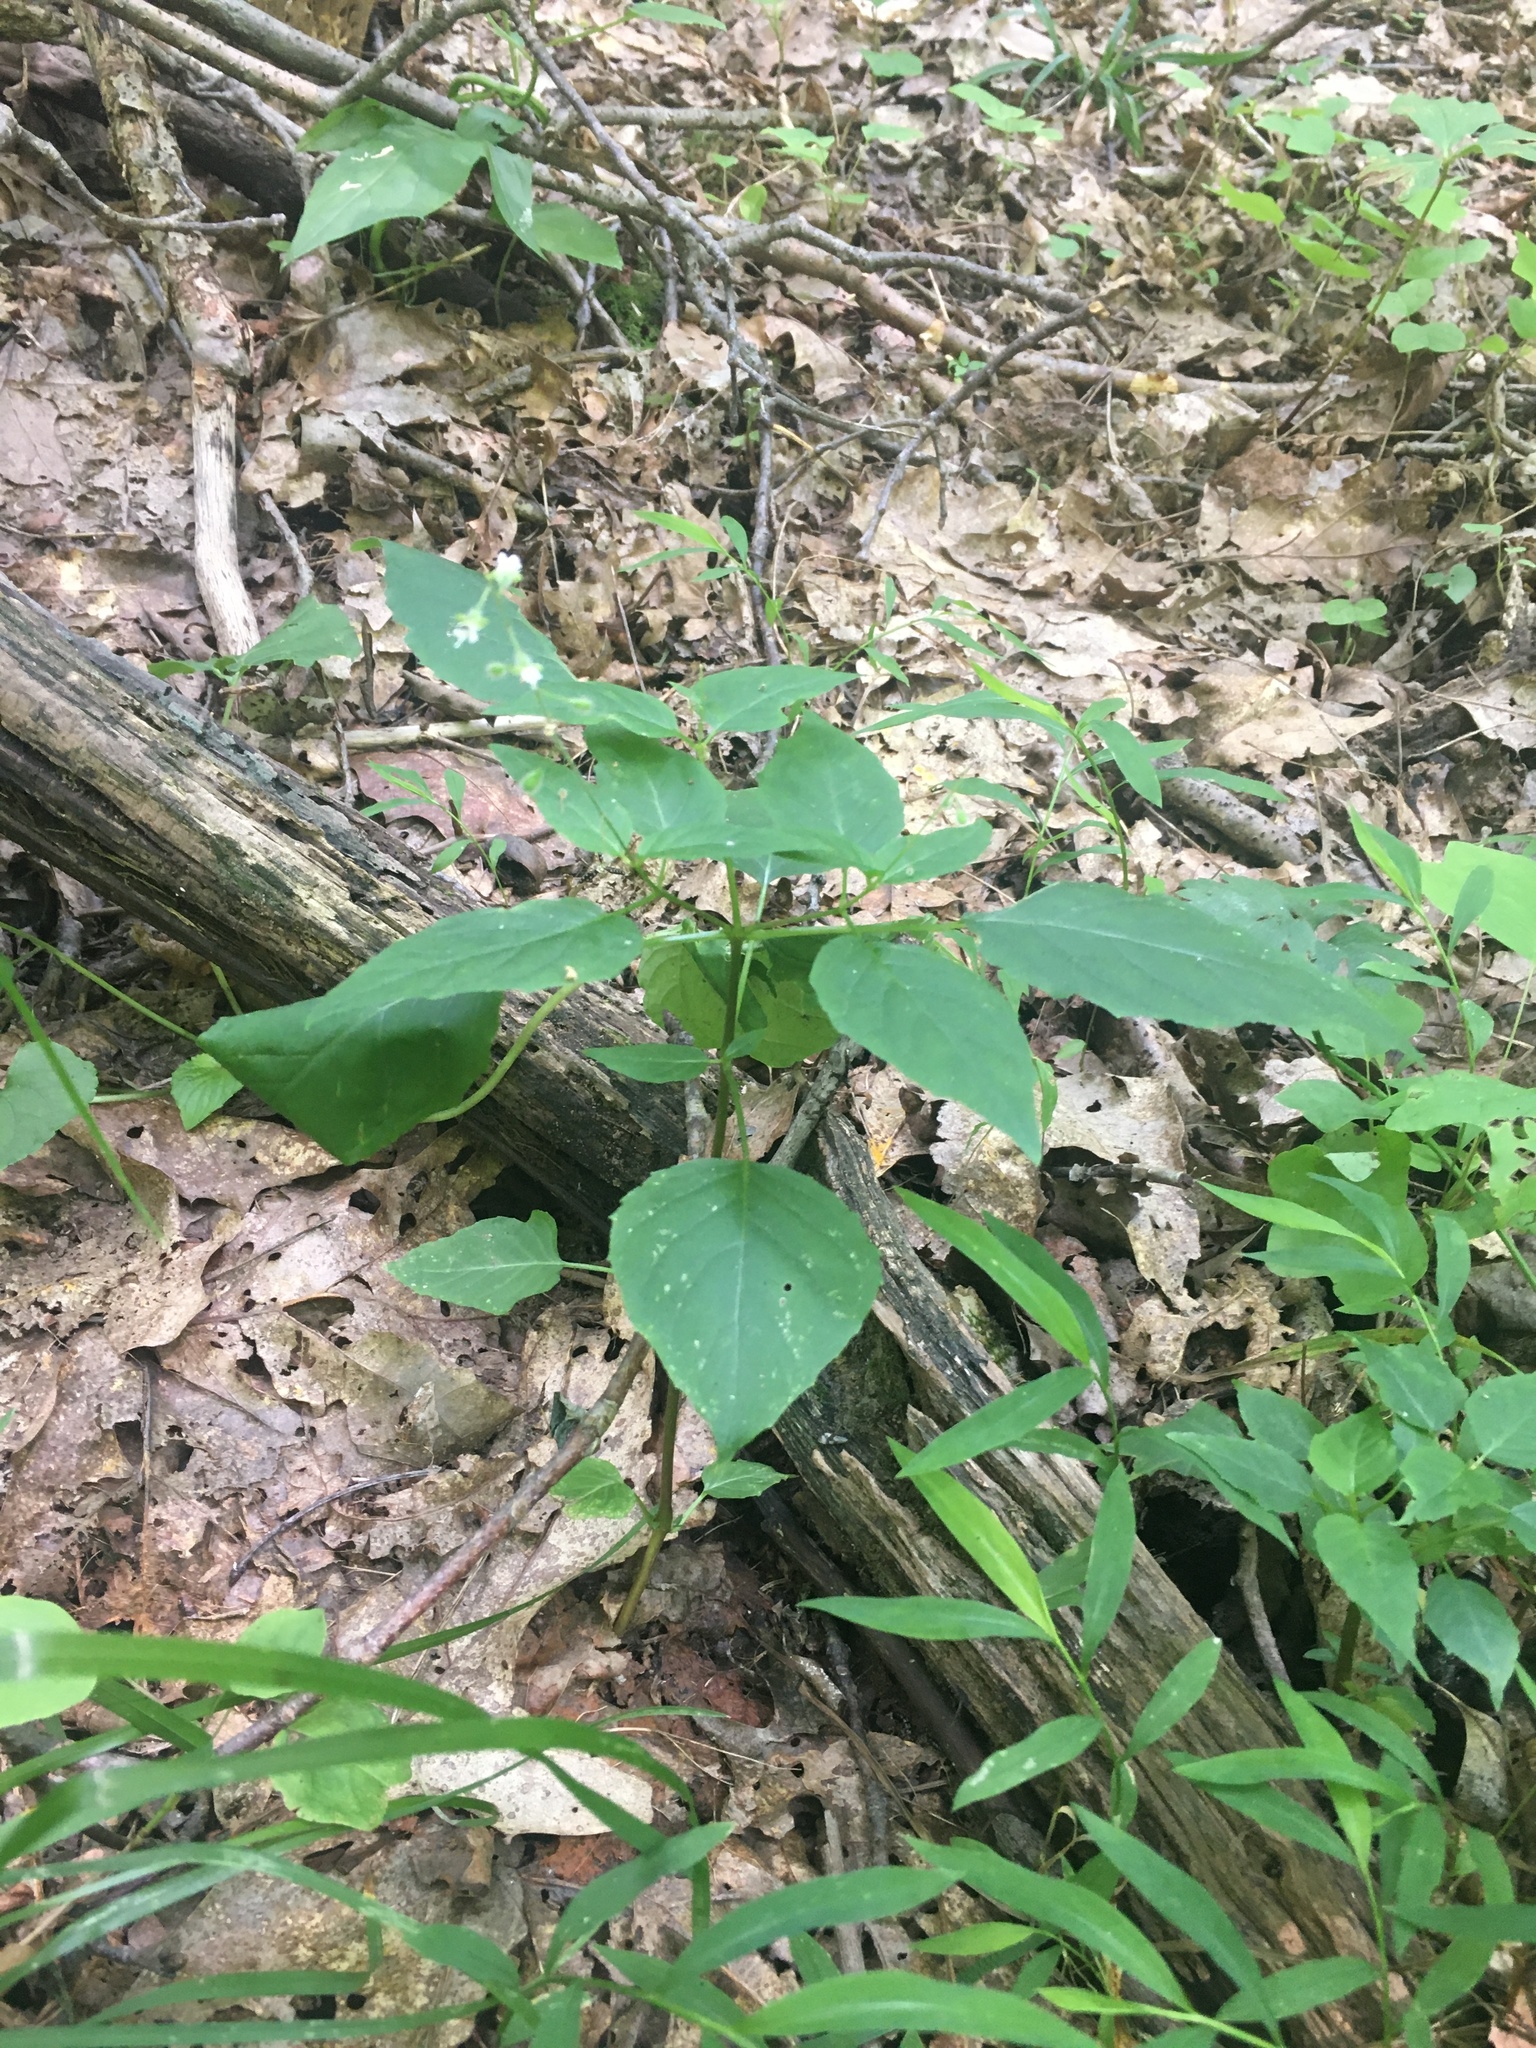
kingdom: Plantae
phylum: Tracheophyta
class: Magnoliopsida
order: Myrtales
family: Onagraceae
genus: Circaea
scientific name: Circaea canadensis
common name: Broad-leaved enchanter's nightshade
